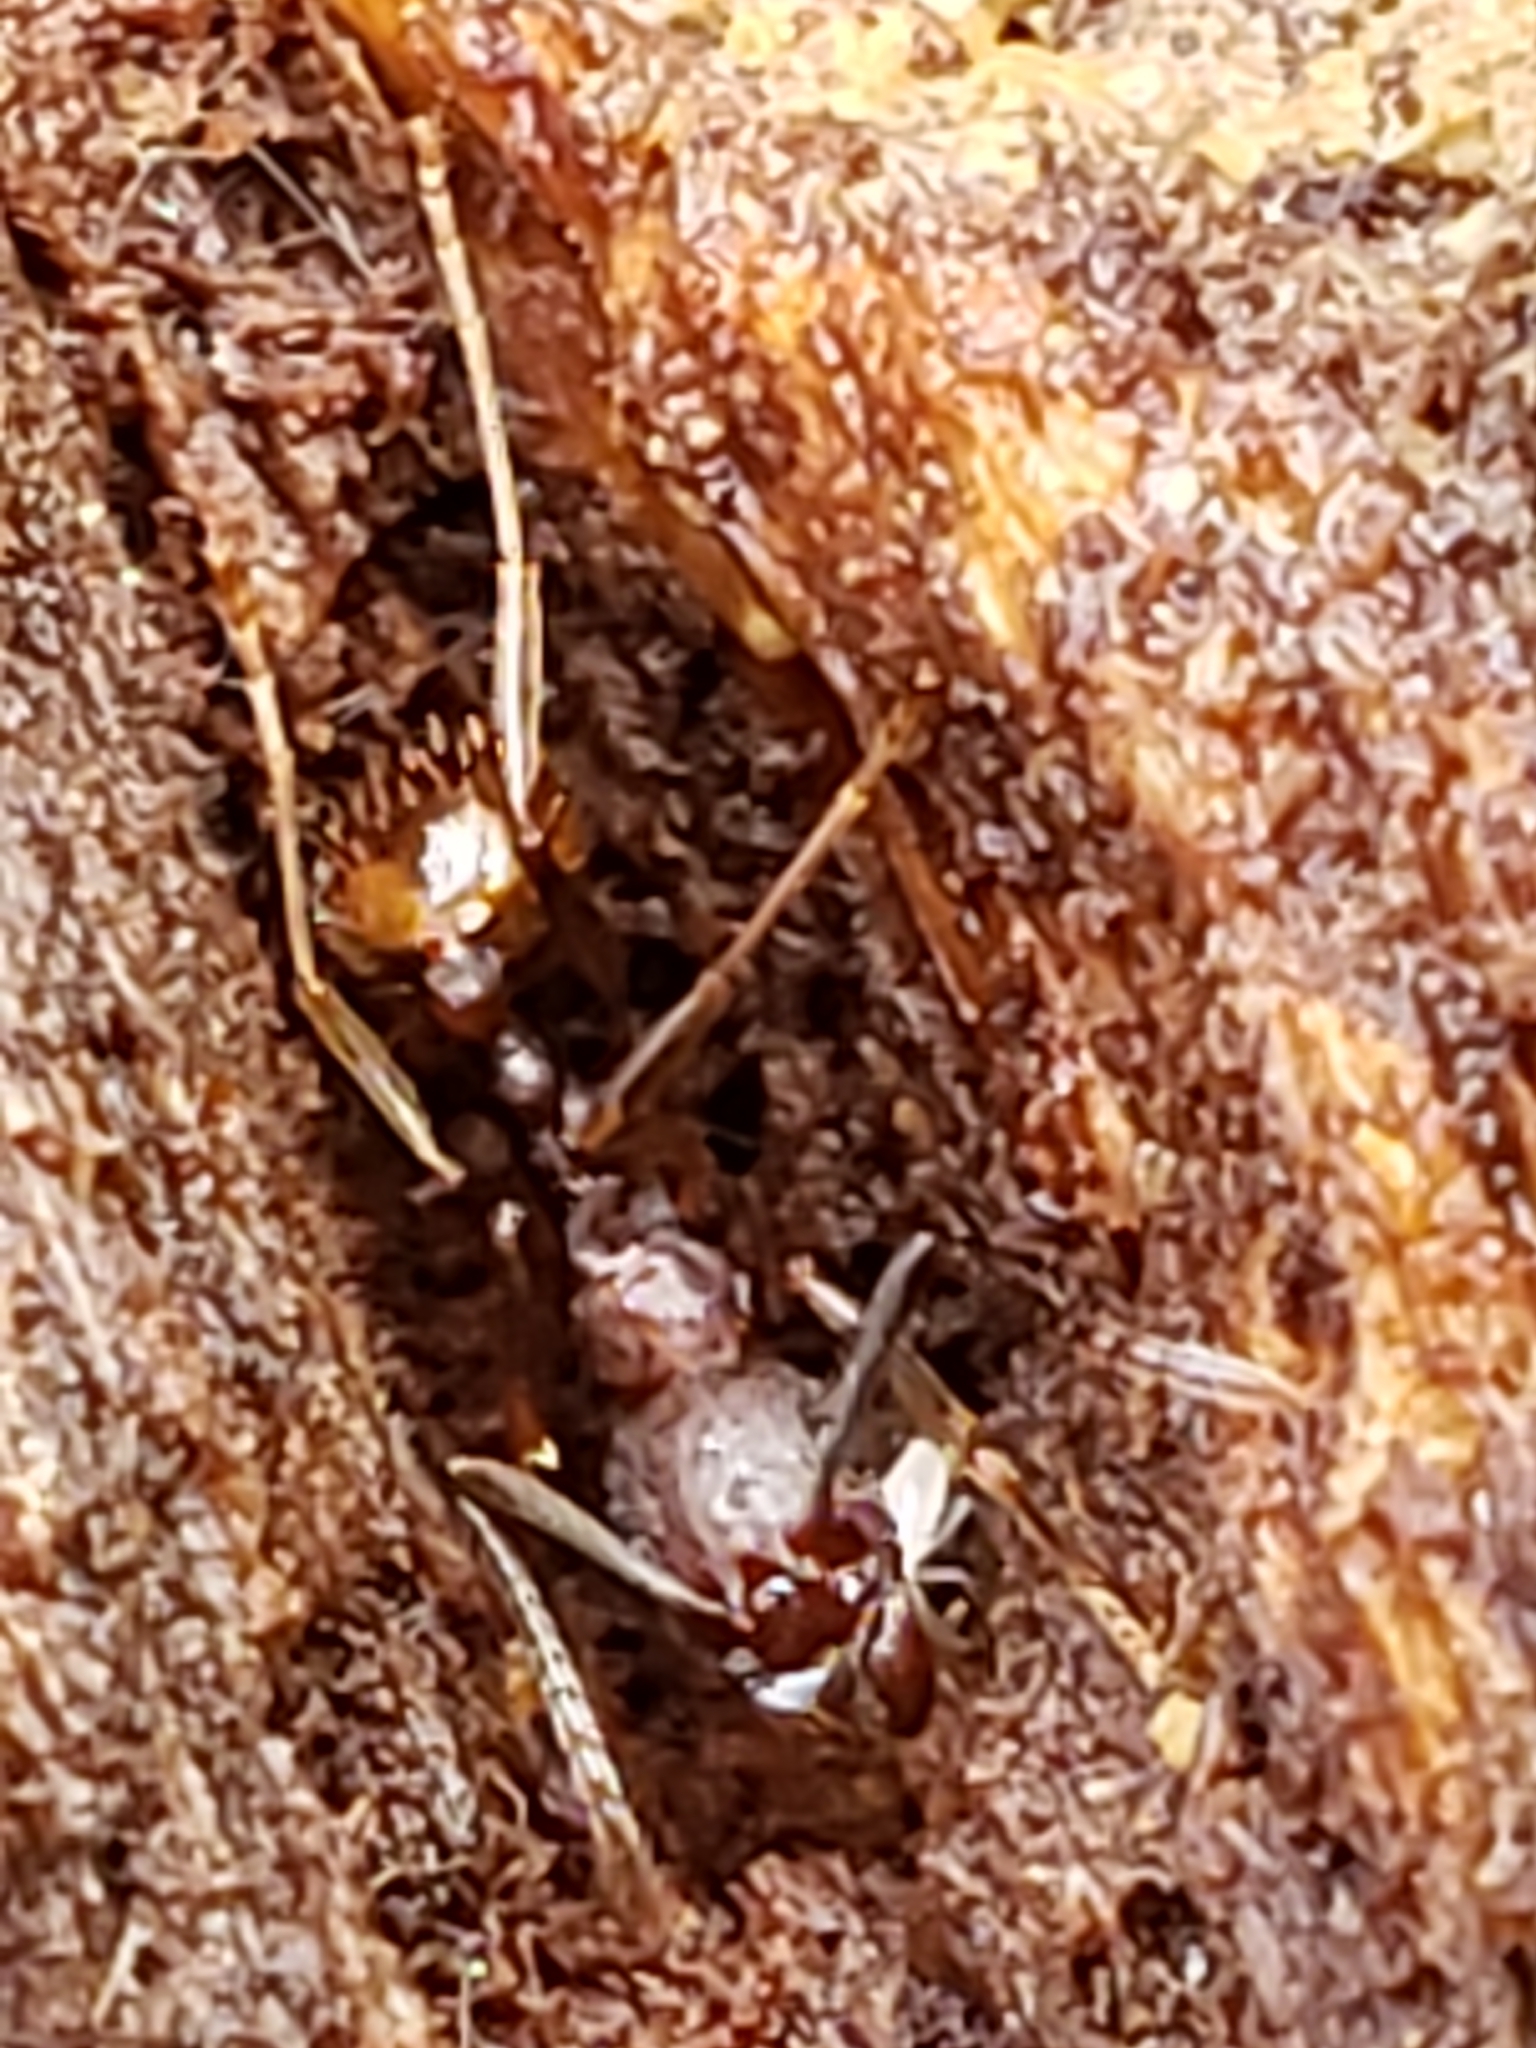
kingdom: Animalia
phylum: Arthropoda
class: Insecta
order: Hymenoptera
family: Formicidae
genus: Aphaenogaster
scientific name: Aphaenogaster fulva
